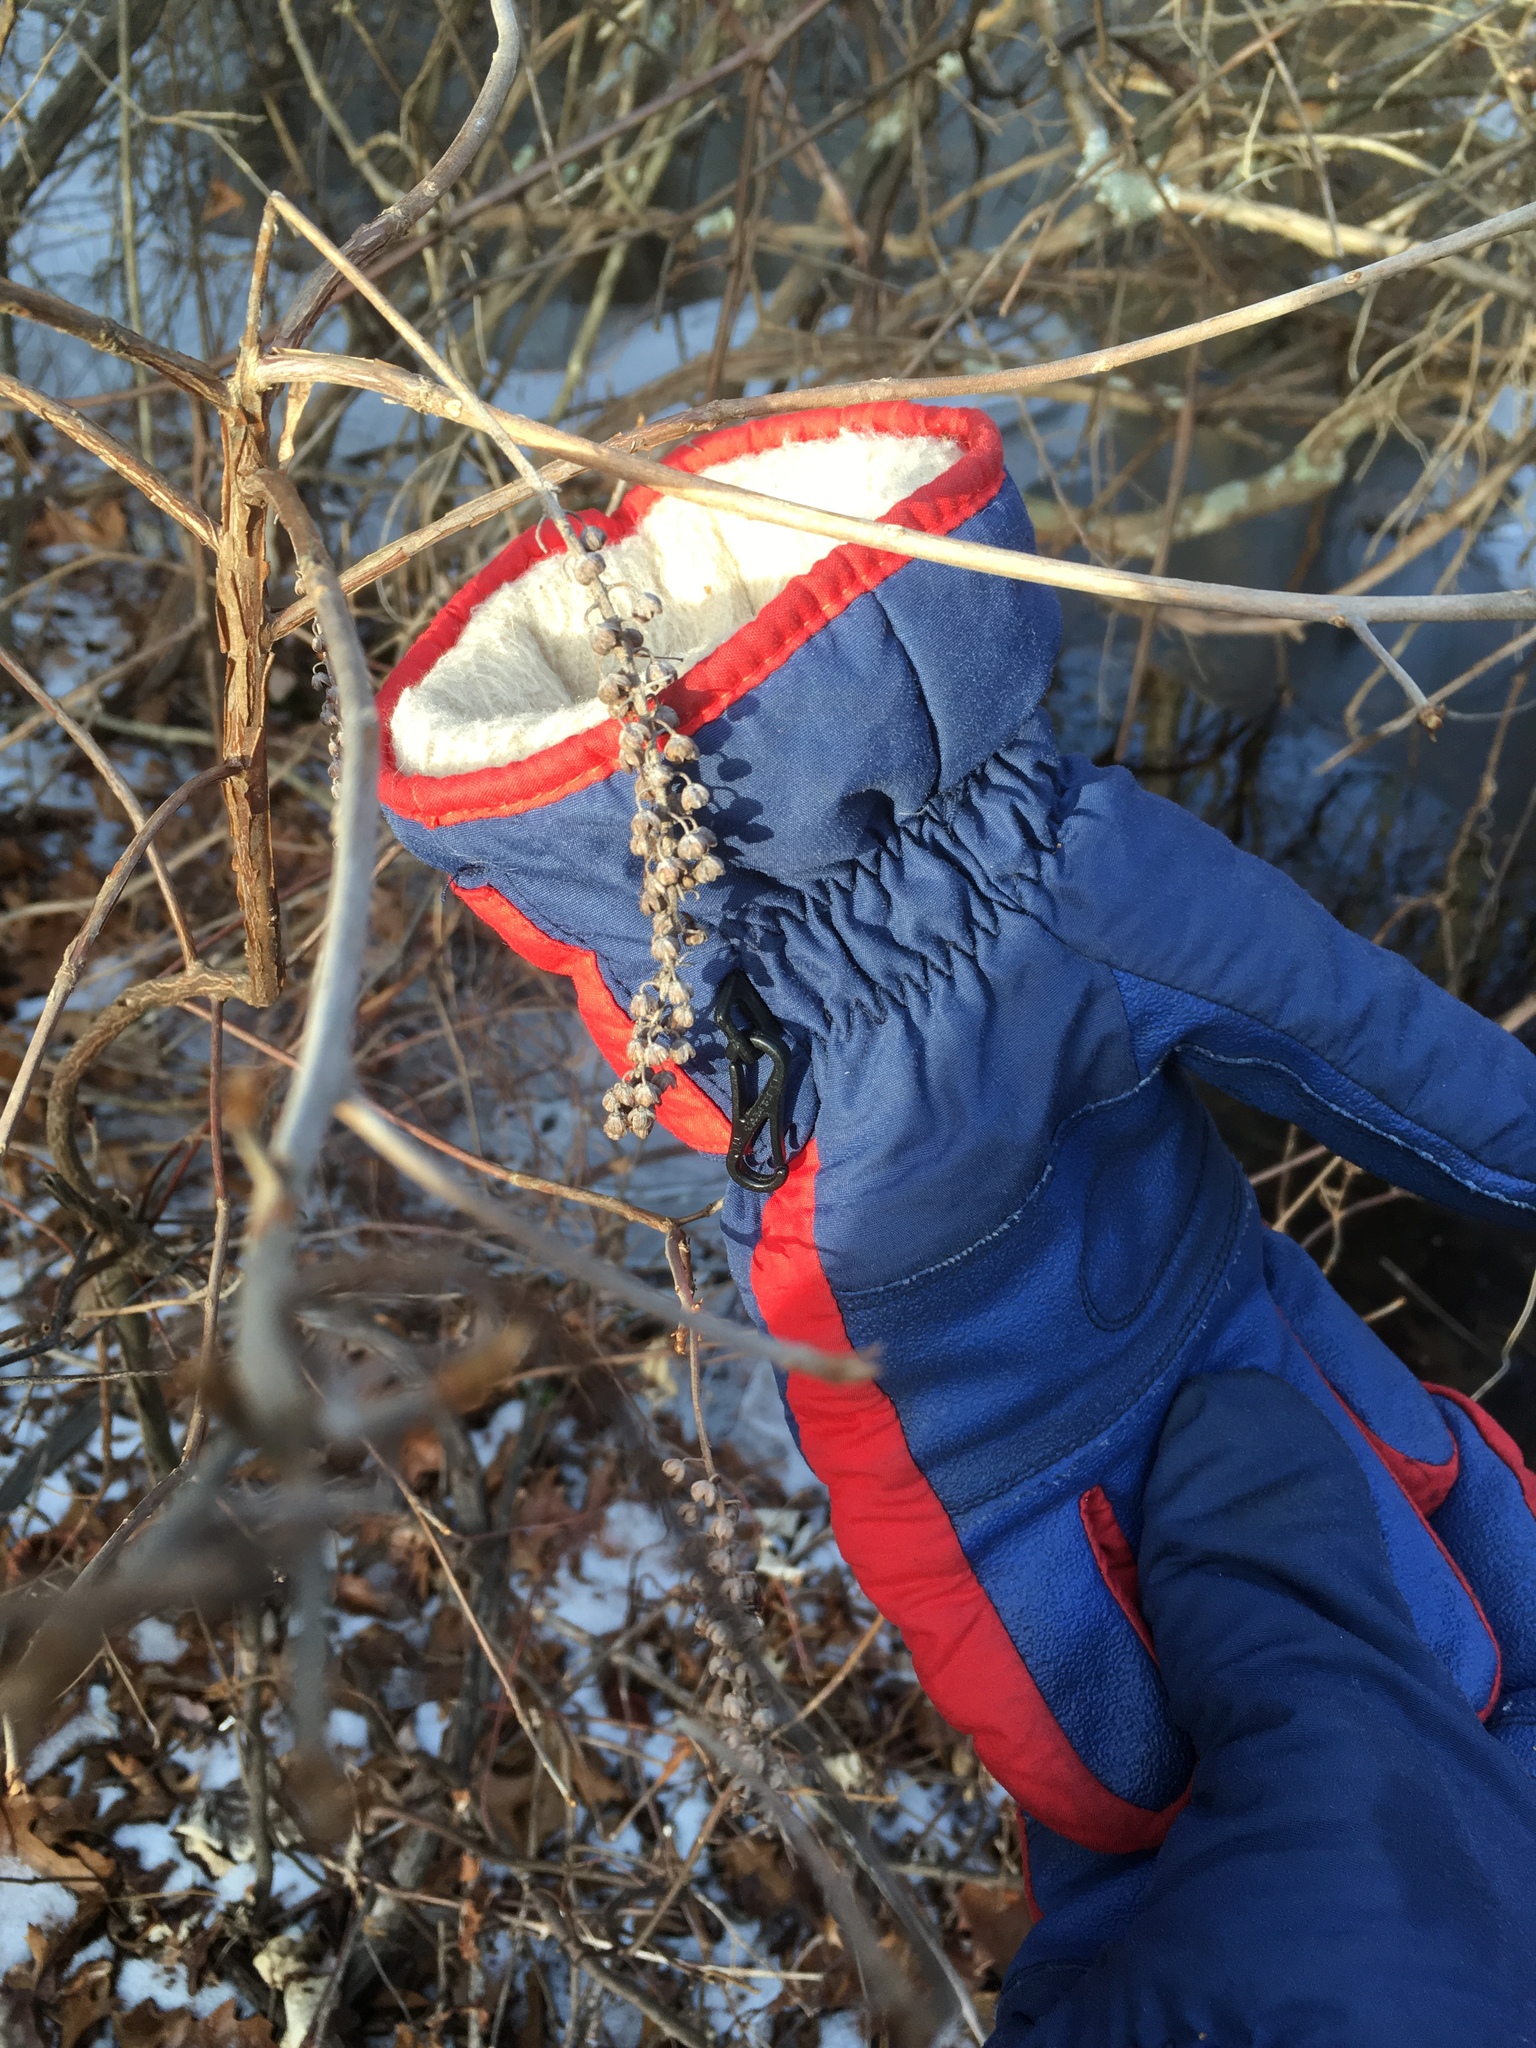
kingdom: Plantae
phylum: Tracheophyta
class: Magnoliopsida
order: Ericales
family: Clethraceae
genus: Clethra
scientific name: Clethra alnifolia
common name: Sweet pepperbush
